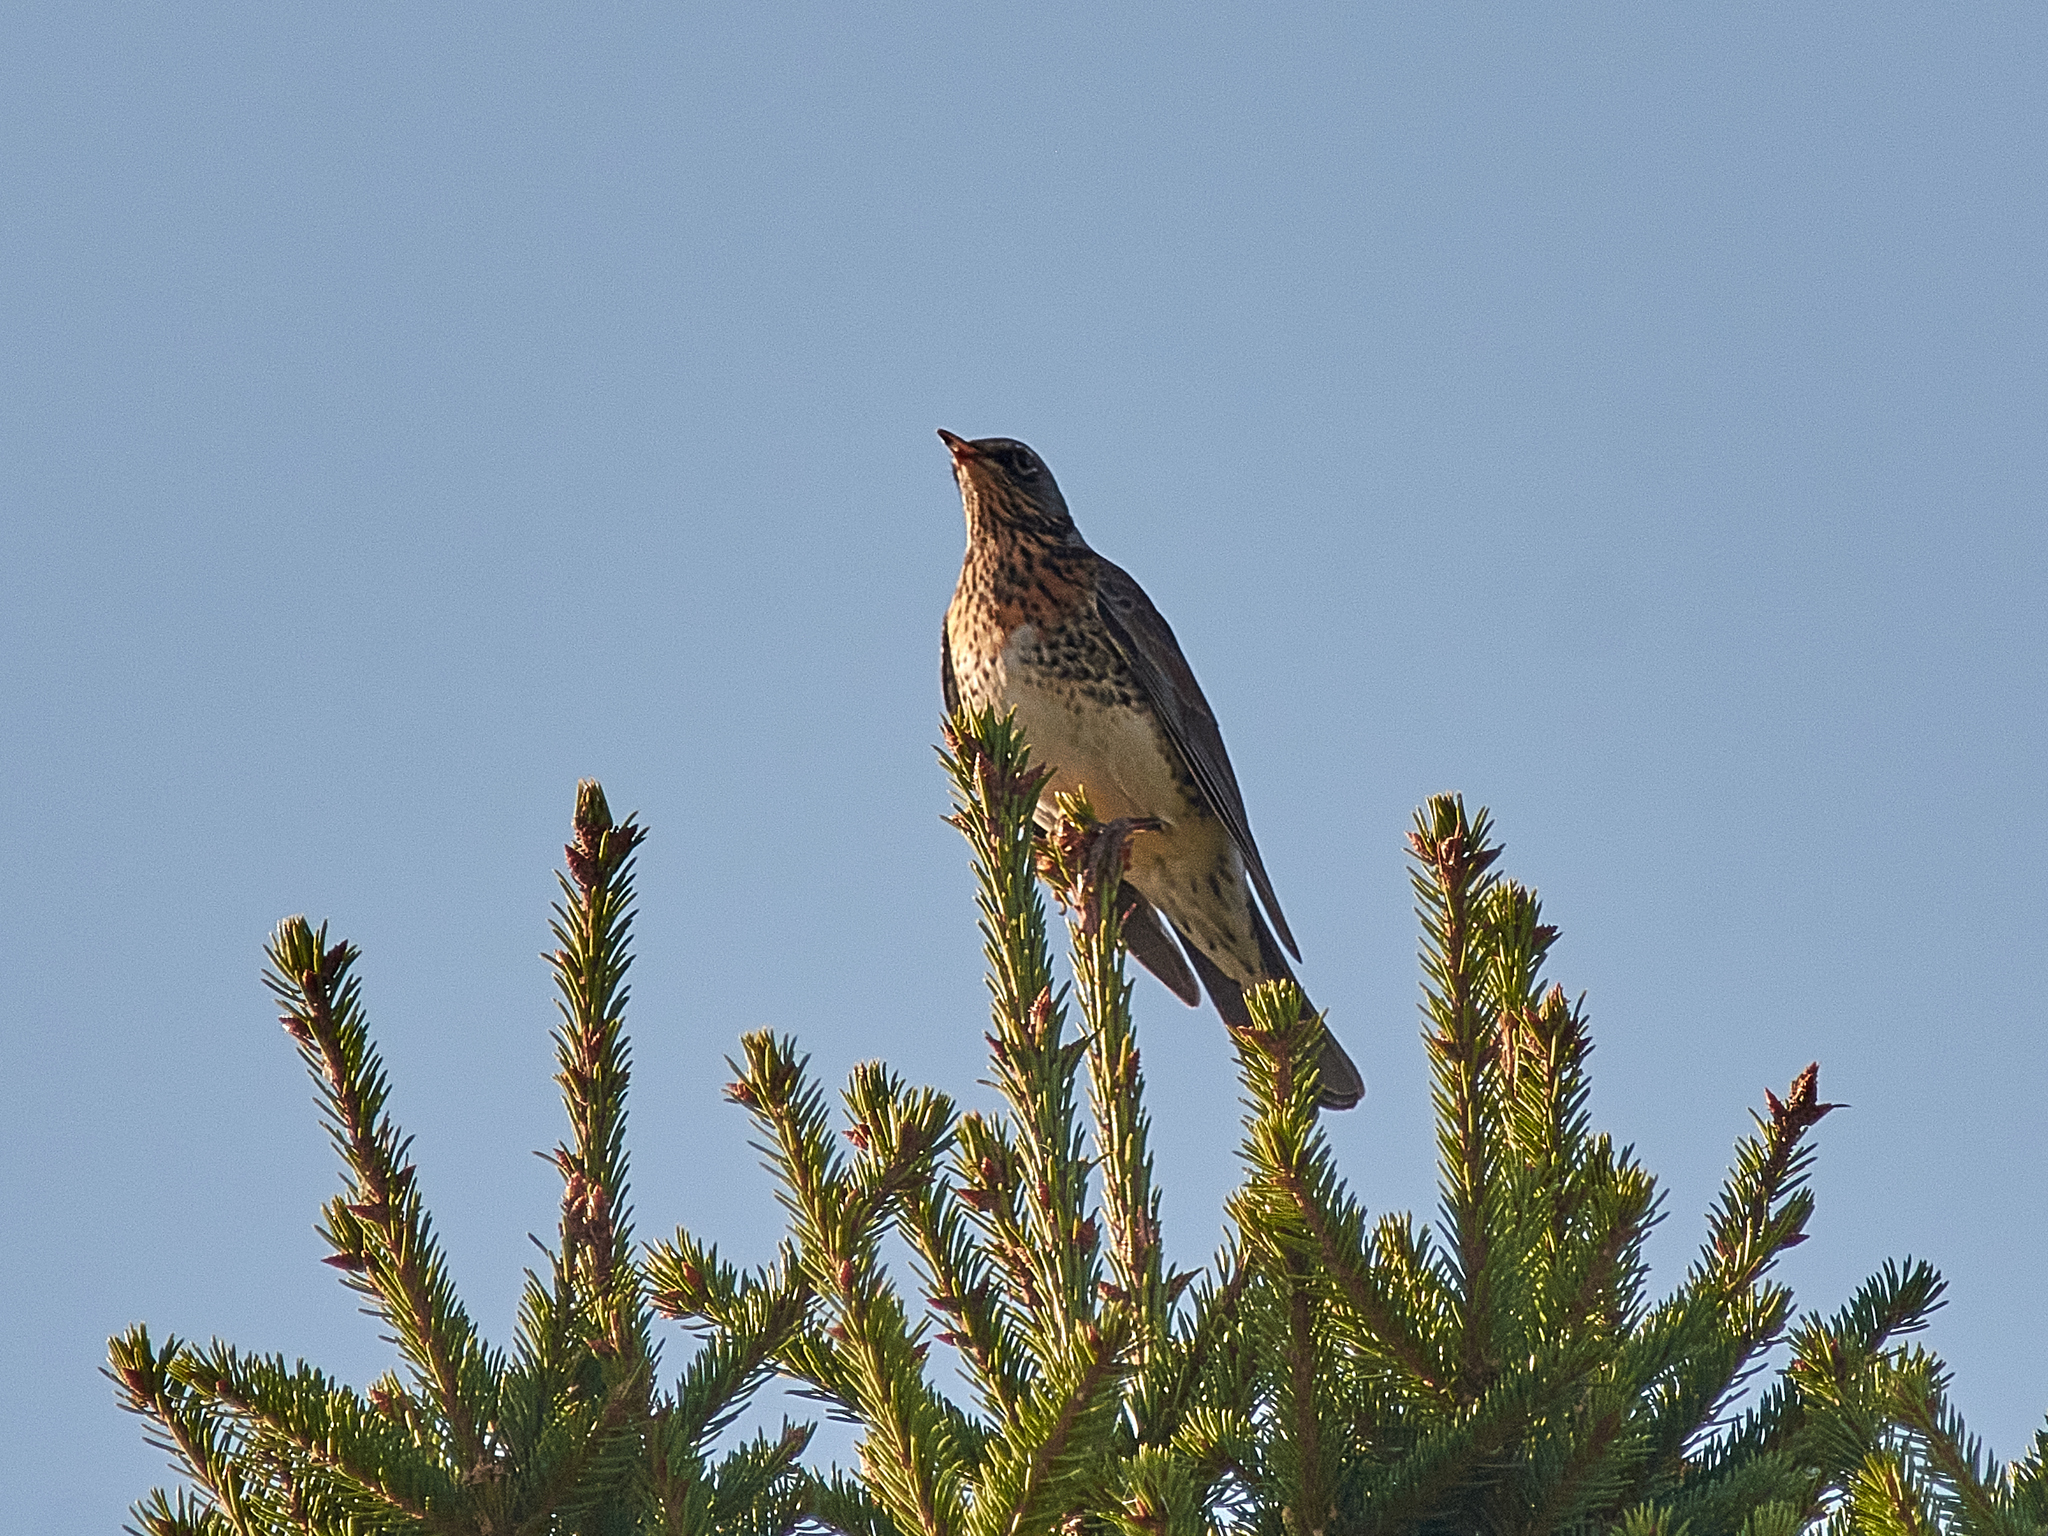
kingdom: Animalia
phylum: Chordata
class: Aves
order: Passeriformes
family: Turdidae
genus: Turdus
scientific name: Turdus pilaris
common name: Fieldfare
